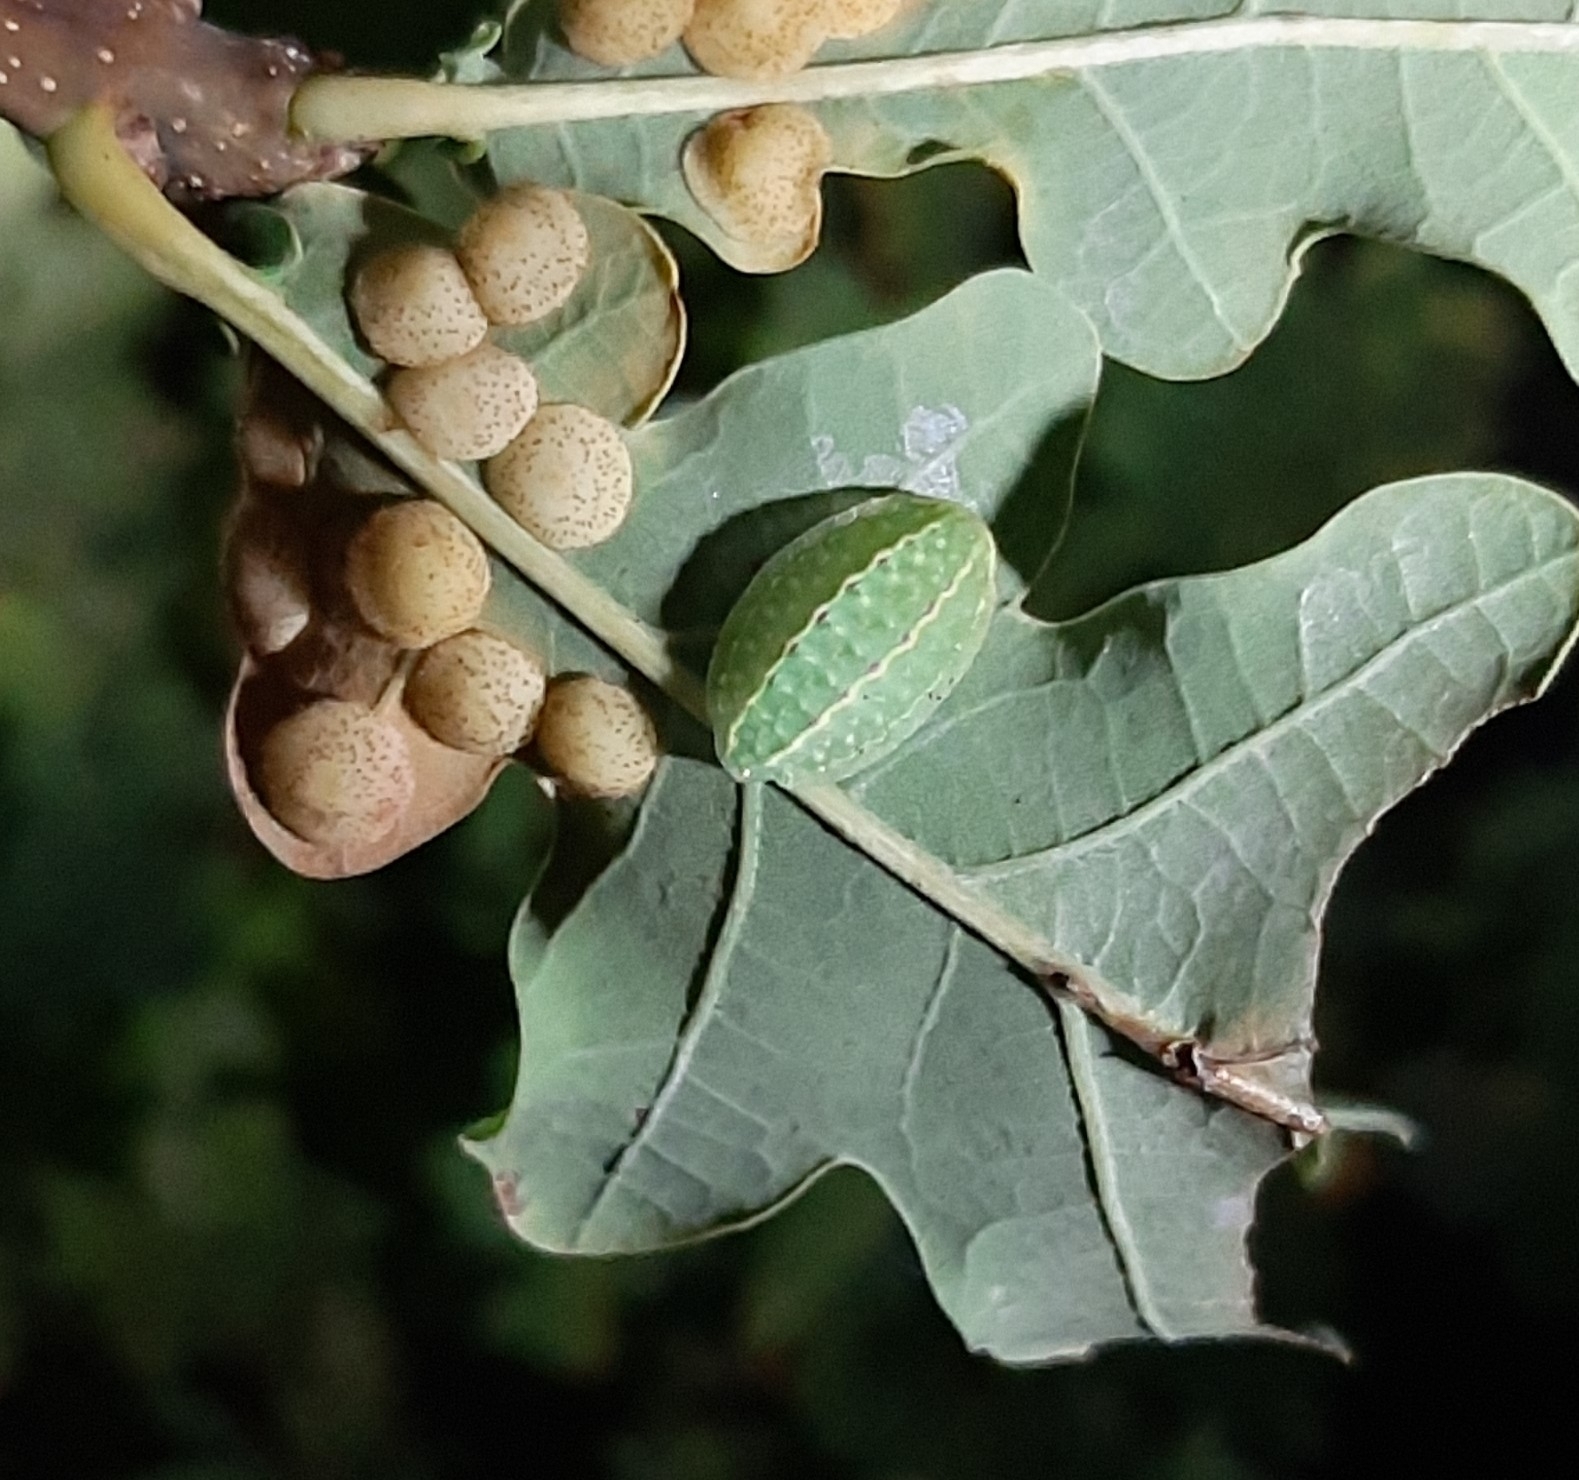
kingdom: Animalia
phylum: Arthropoda
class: Insecta
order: Lepidoptera
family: Limacodidae
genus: Apoda
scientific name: Apoda limacodes
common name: Festoon
